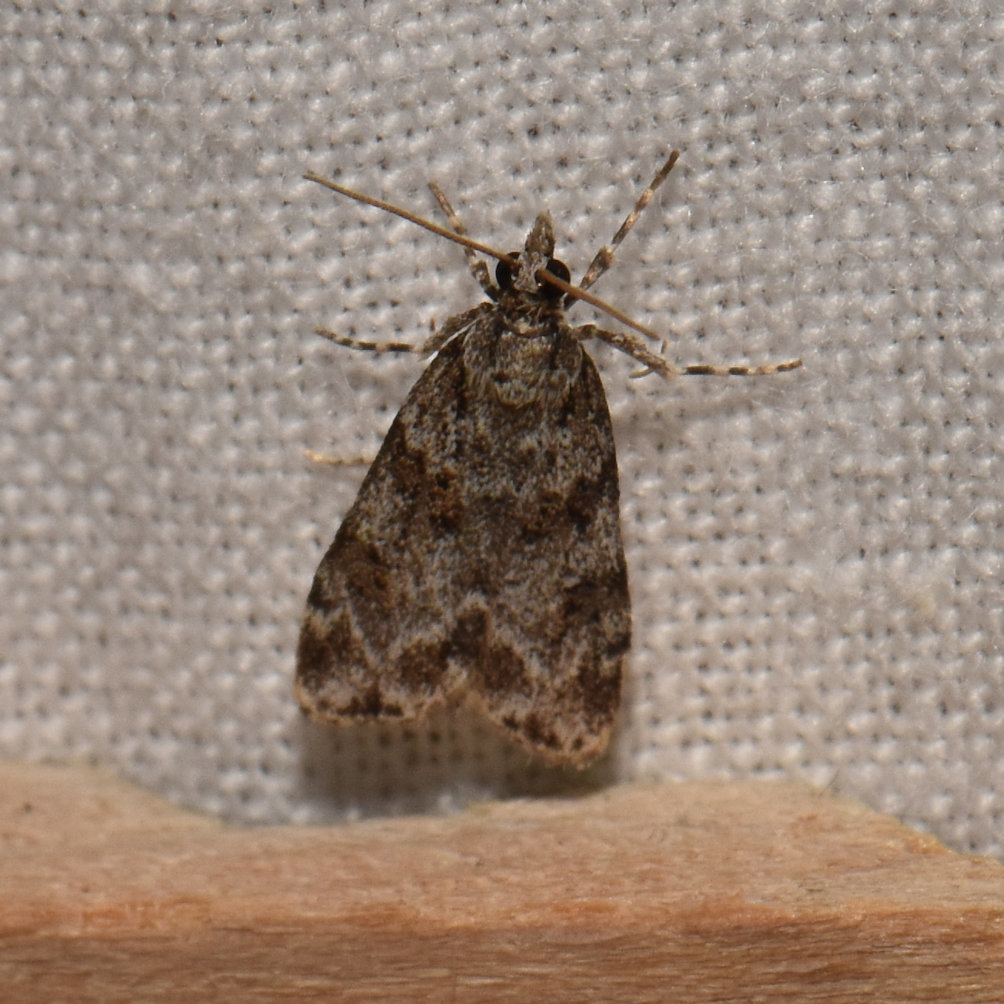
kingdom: Animalia
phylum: Arthropoda
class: Insecta
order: Lepidoptera
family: Crambidae
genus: Scoparia
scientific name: Scoparia biplagialis
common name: Double-striped scoparia moth
